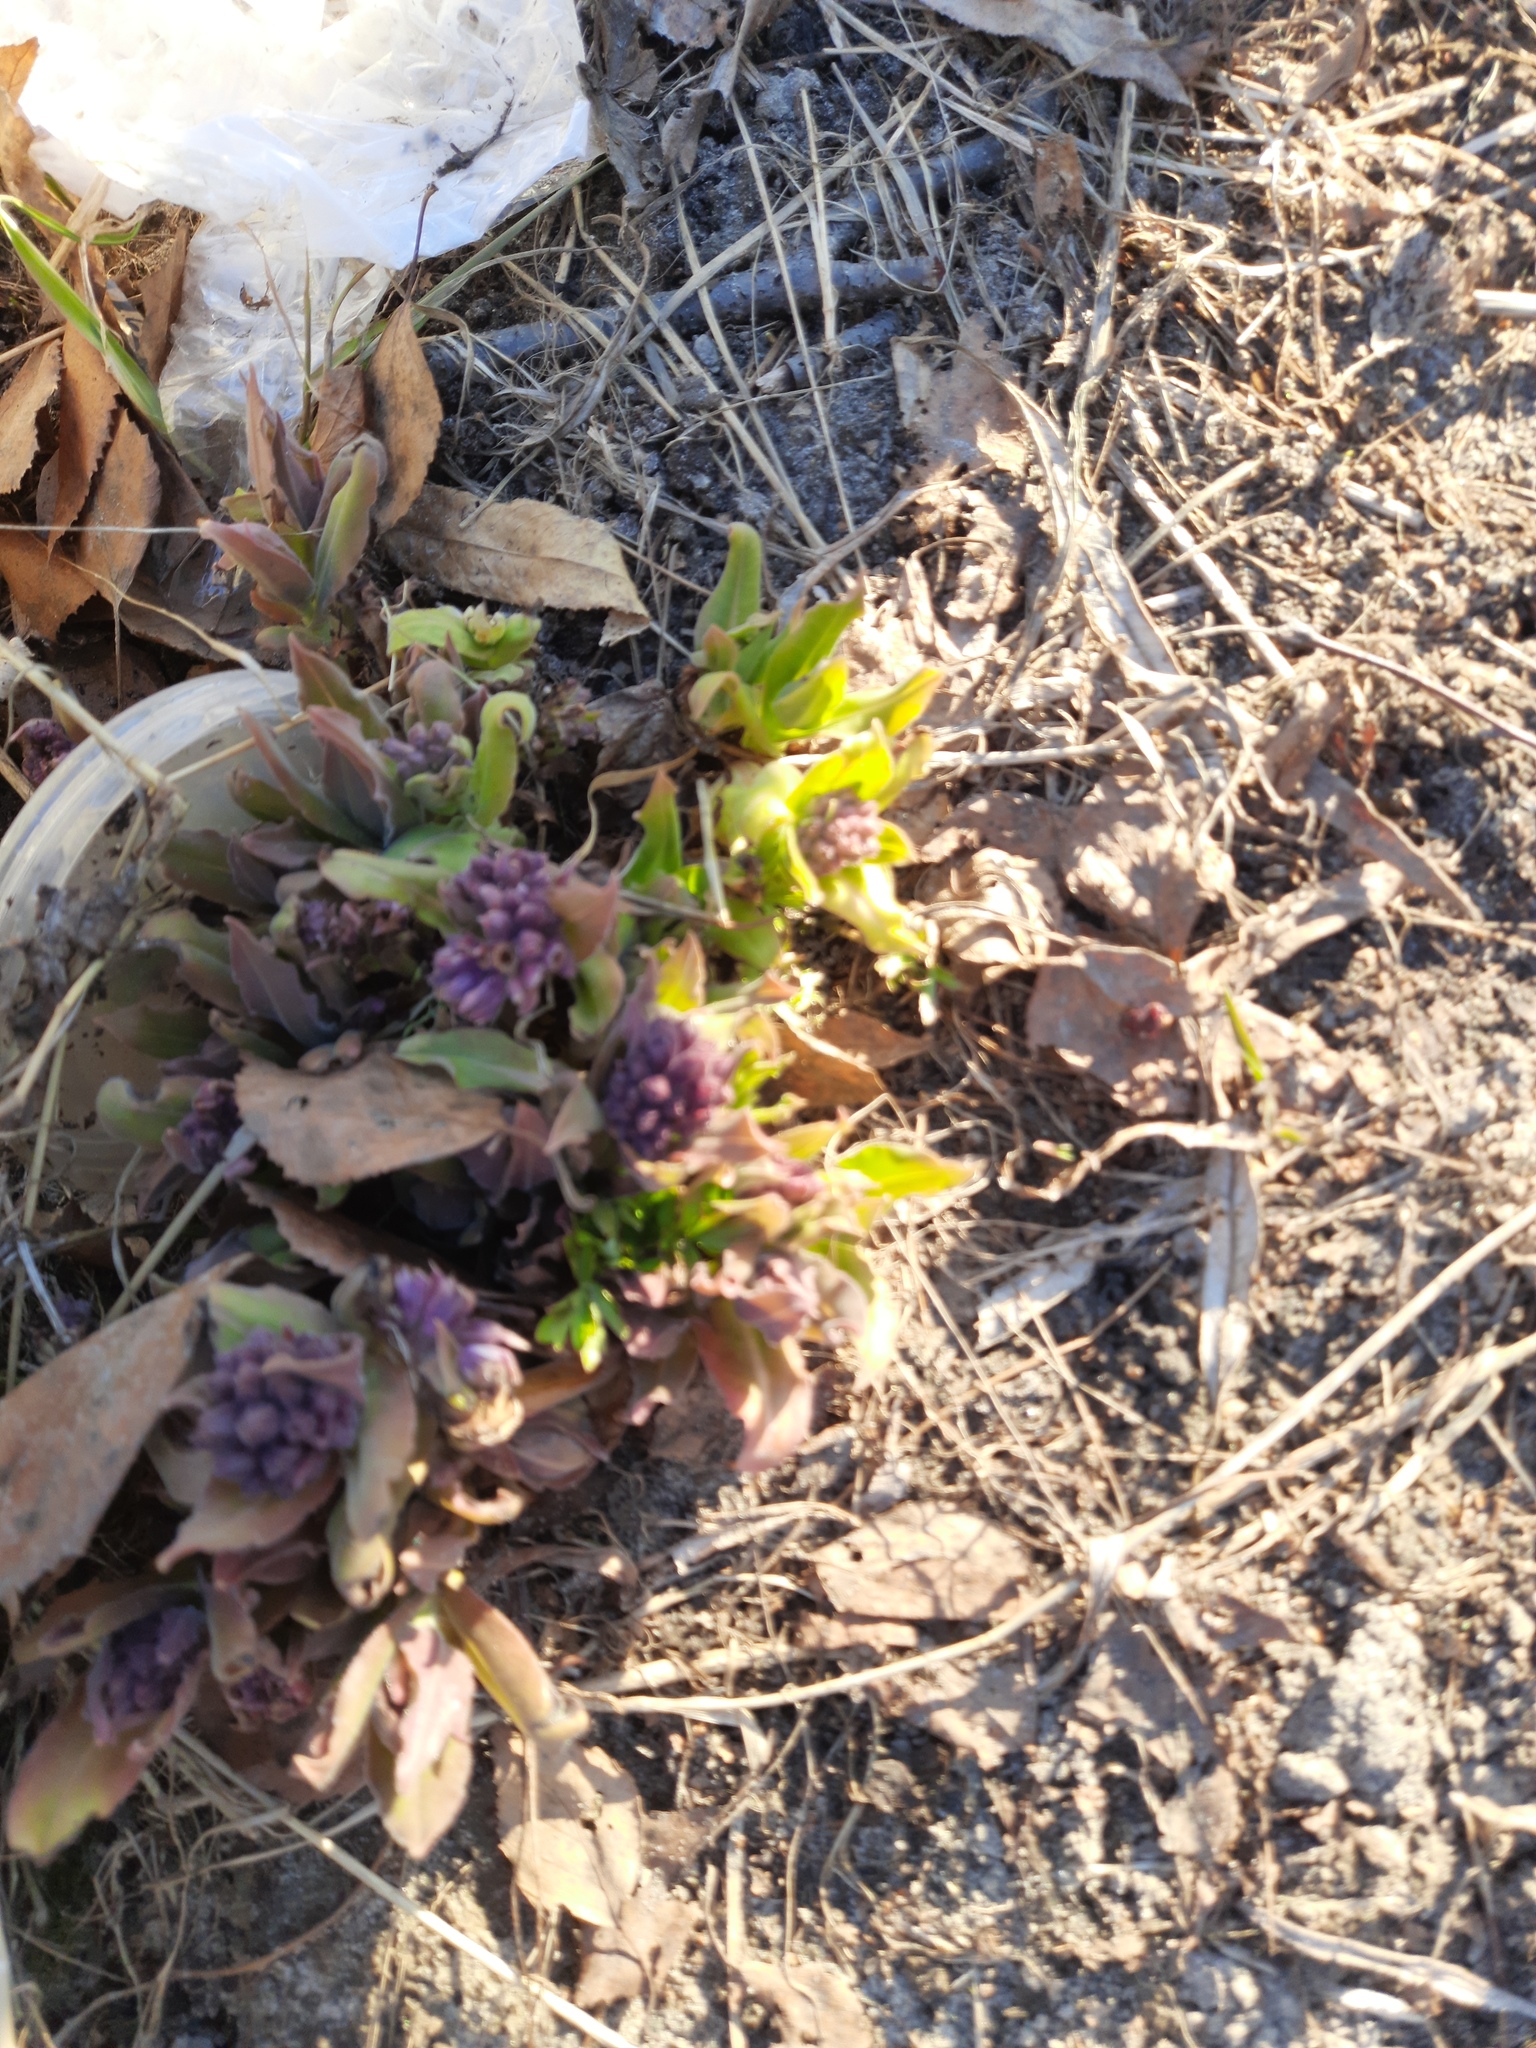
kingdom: Plantae
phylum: Tracheophyta
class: Magnoliopsida
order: Boraginales
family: Boraginaceae
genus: Pulmonaria
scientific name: Pulmonaria mollis
